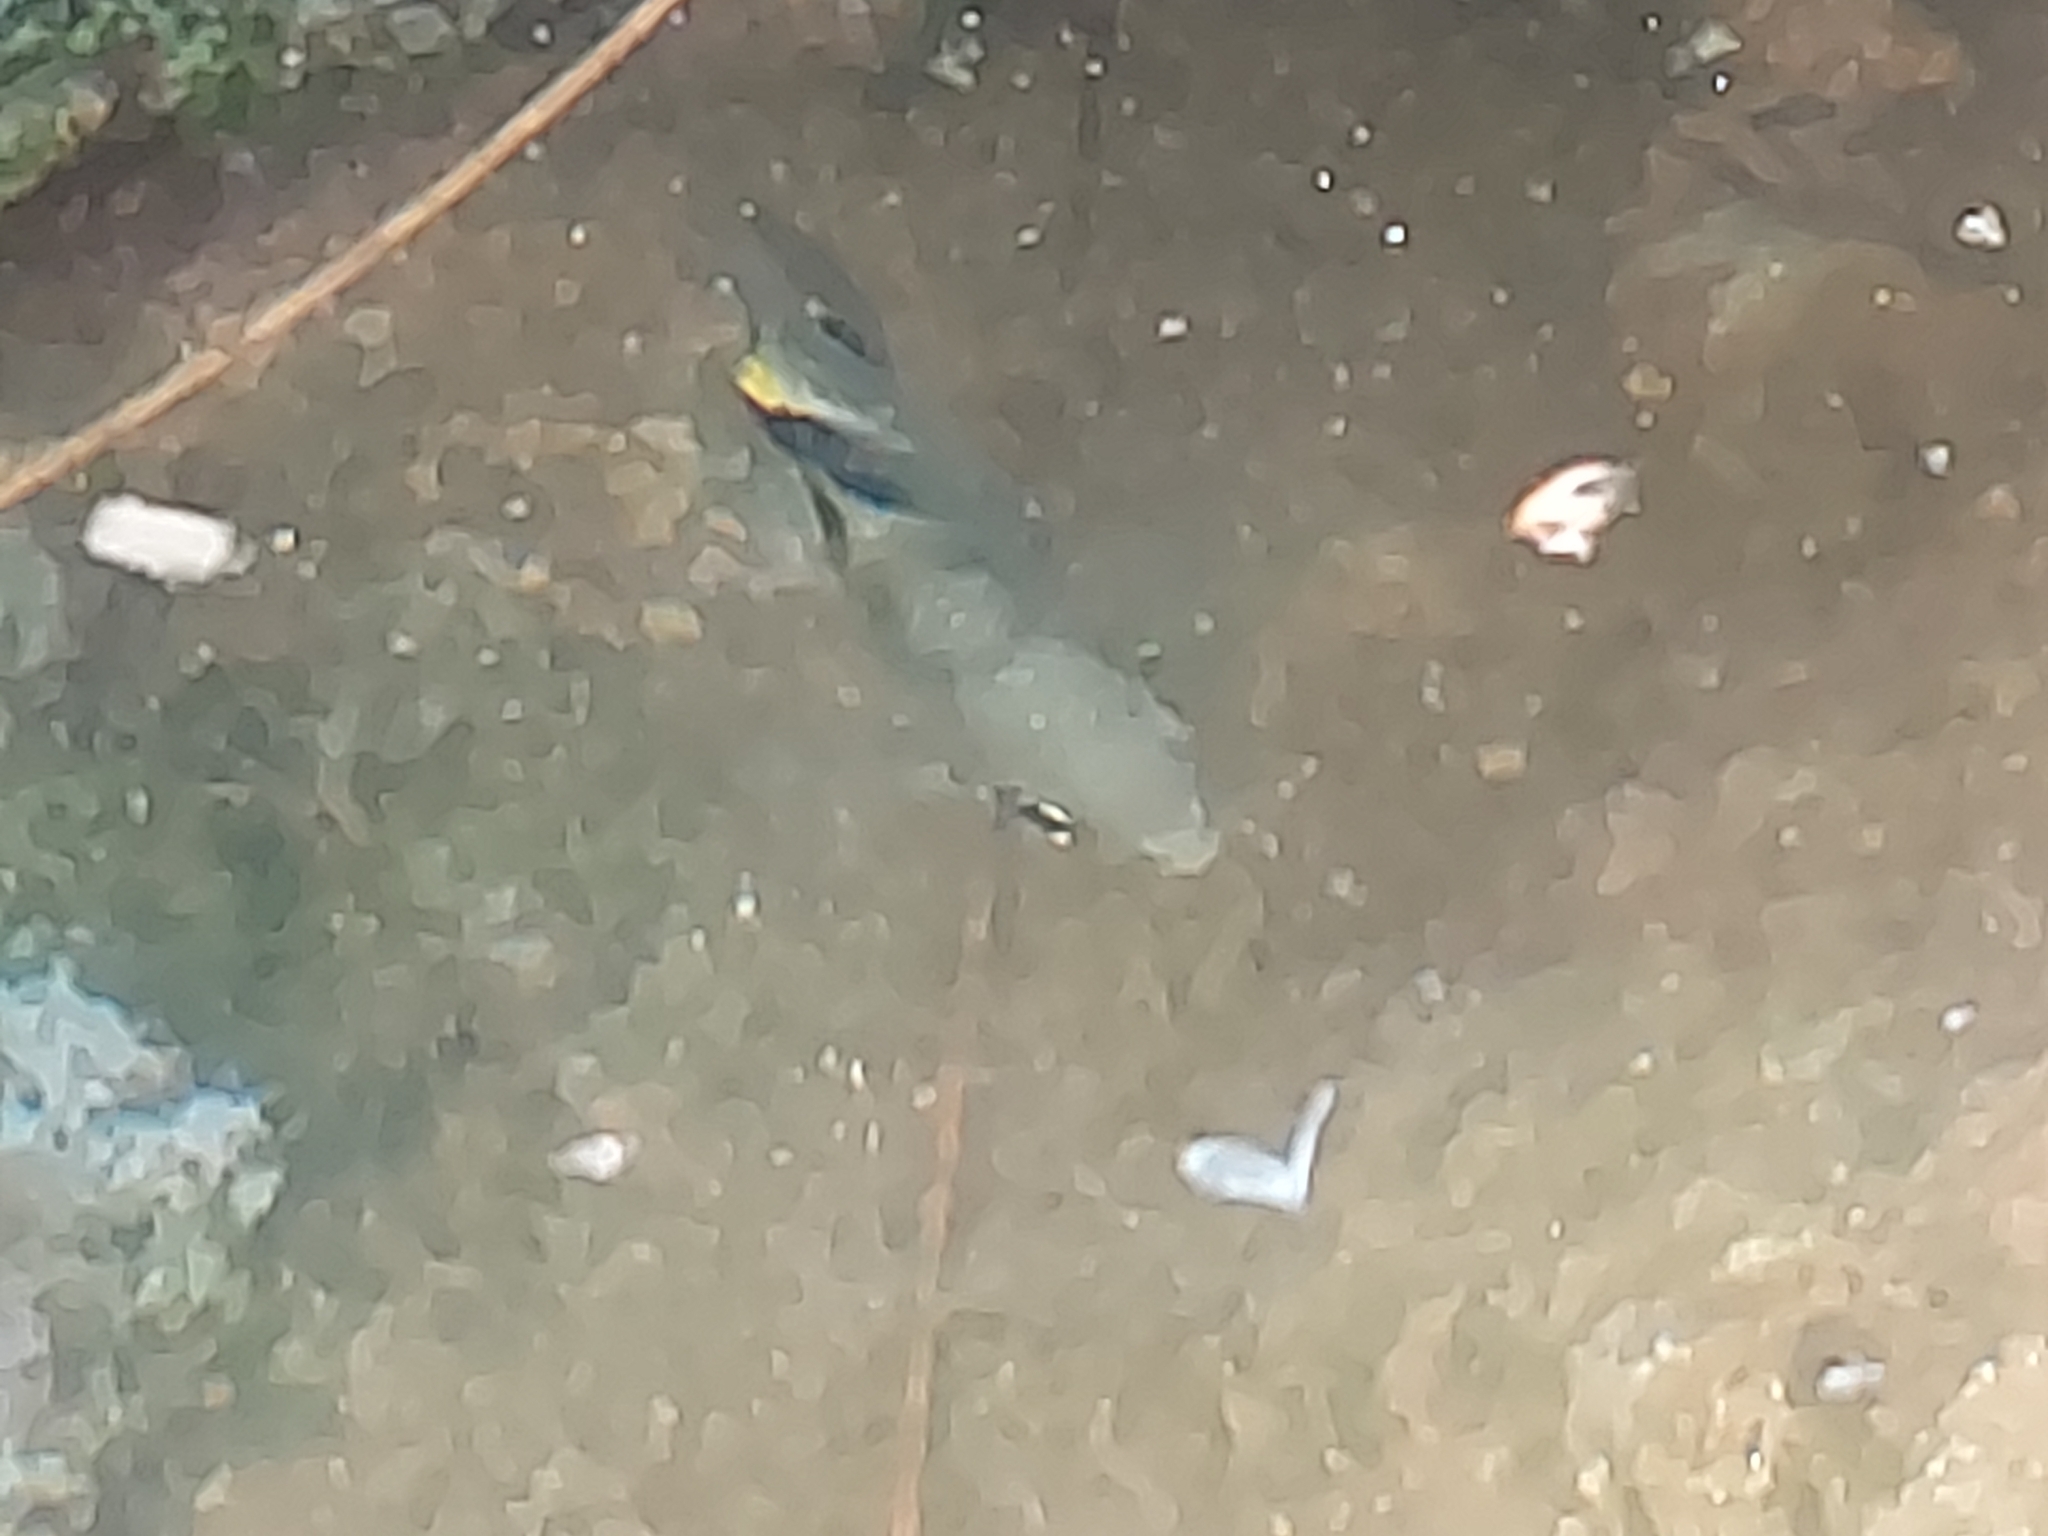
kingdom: Animalia
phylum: Chordata
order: Perciformes
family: Pomacentridae
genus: Abudefduf
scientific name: Abudefduf sordidus
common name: Blackspot sergeant
